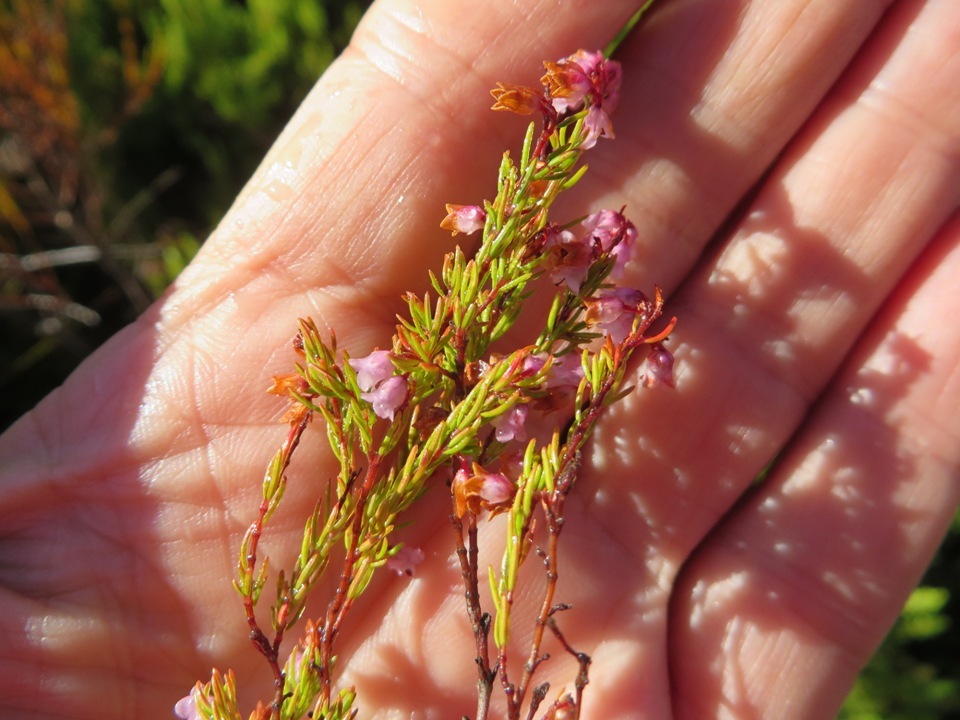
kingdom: Plantae
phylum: Tracheophyta
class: Magnoliopsida
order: Ericales
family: Ericaceae
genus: Erica
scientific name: Erica intervallaris
